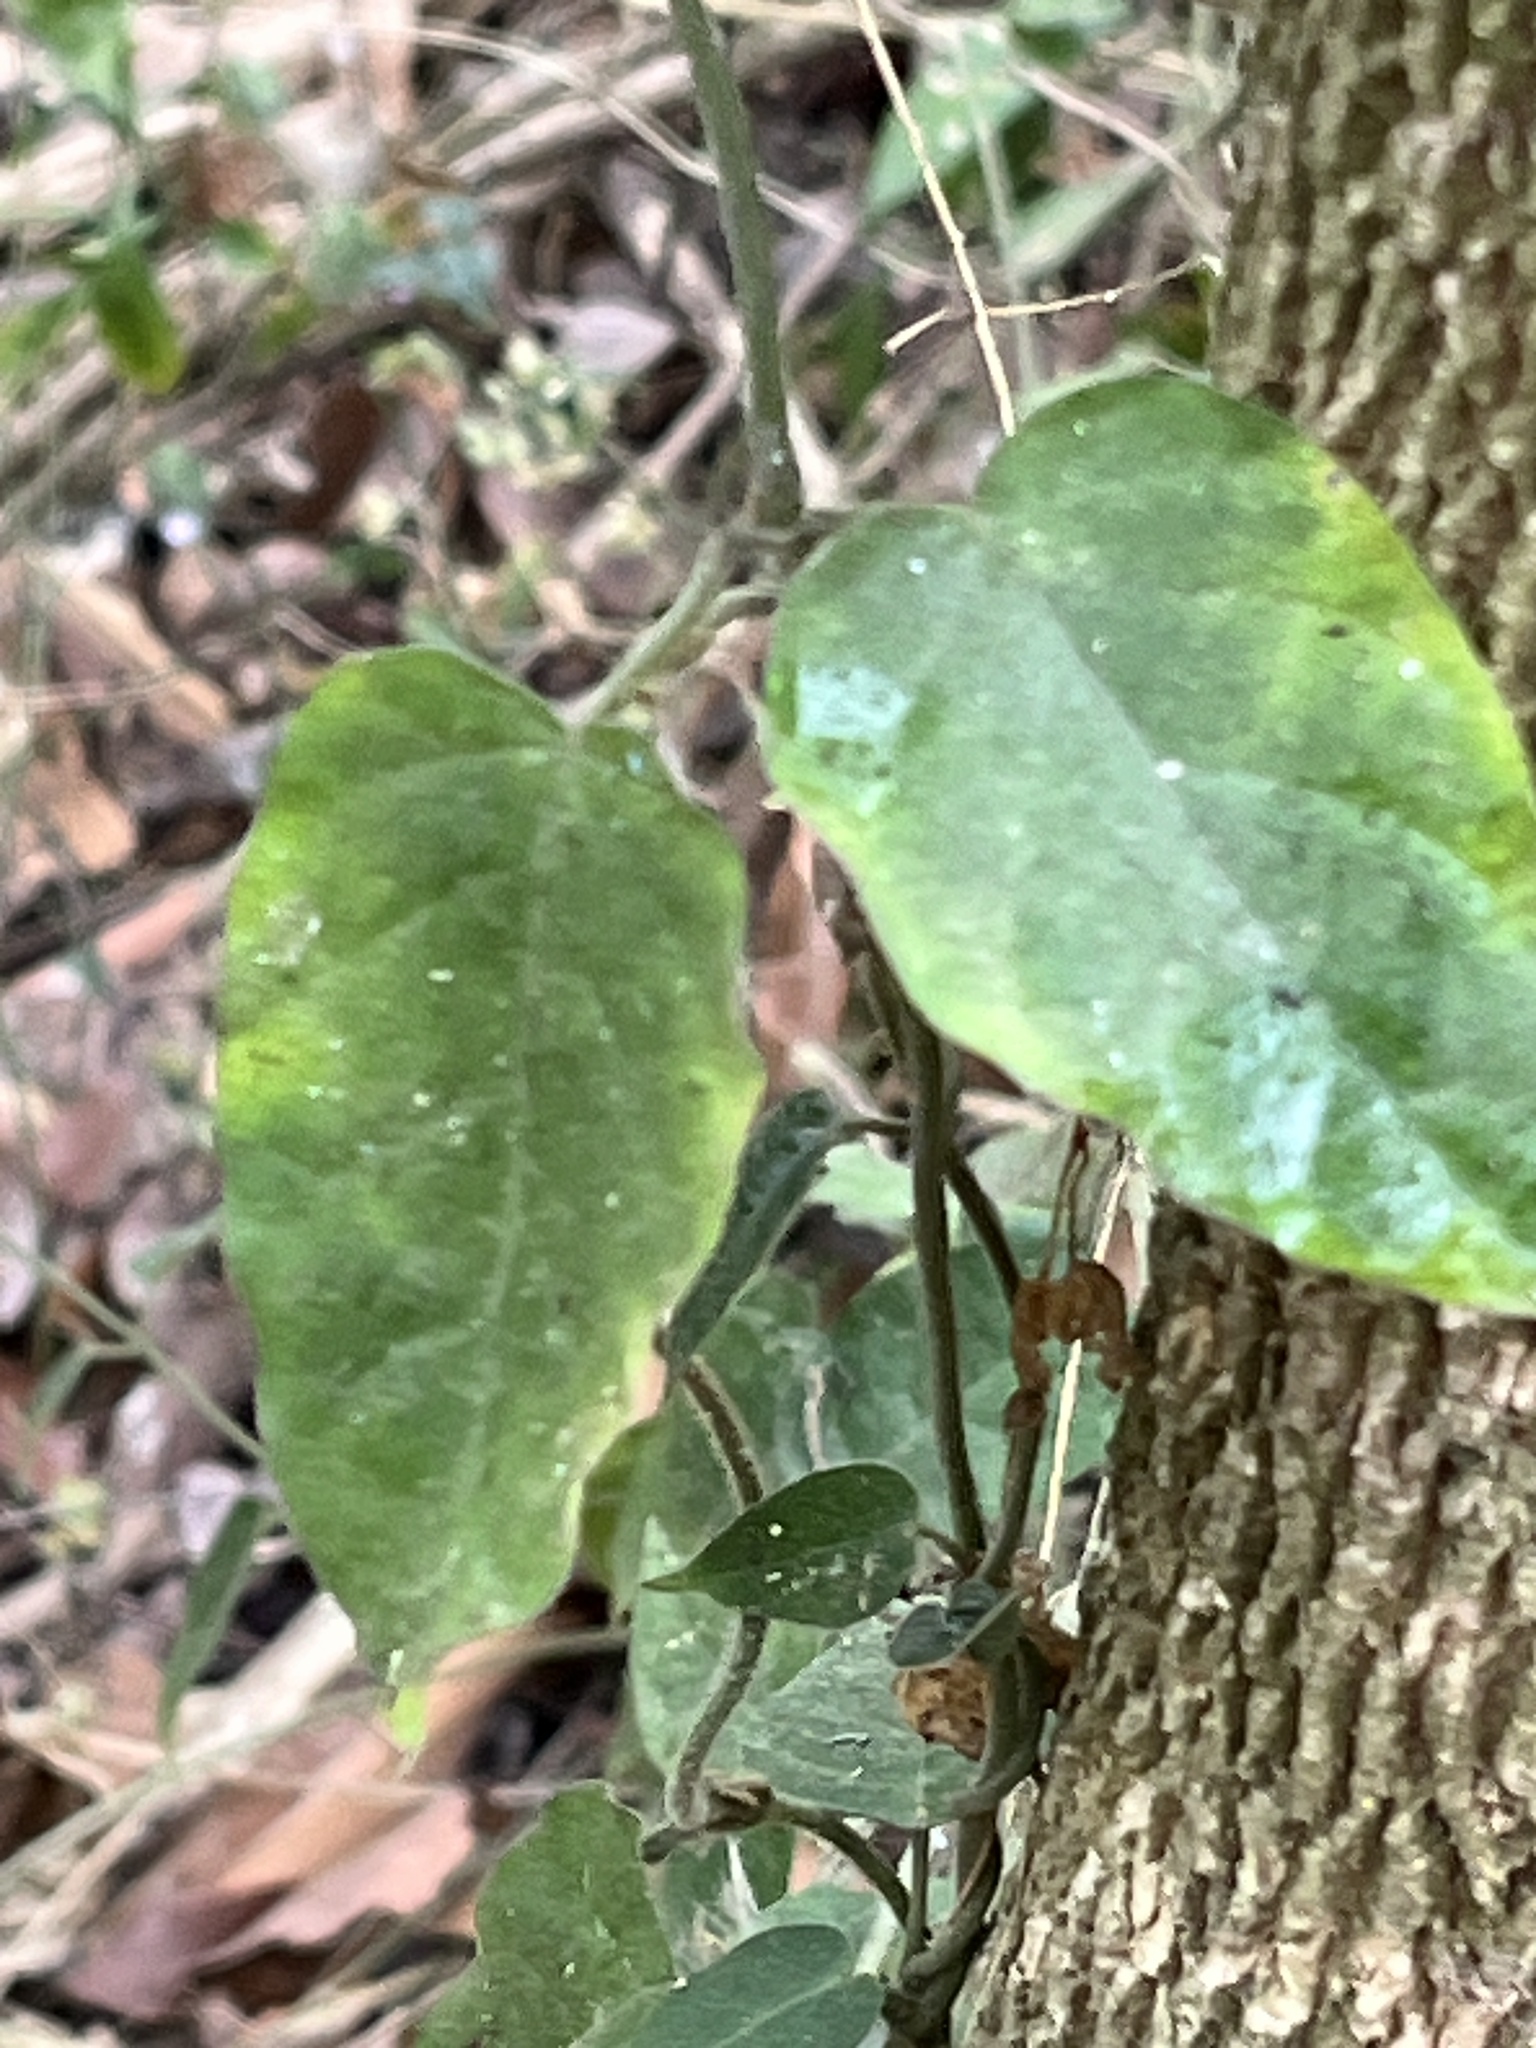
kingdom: Plantae
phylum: Tracheophyta
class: Magnoliopsida
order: Gentianales
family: Apocynaceae
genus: Marsdenia
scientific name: Marsdenia tinctoria
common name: Climbing-indigo
